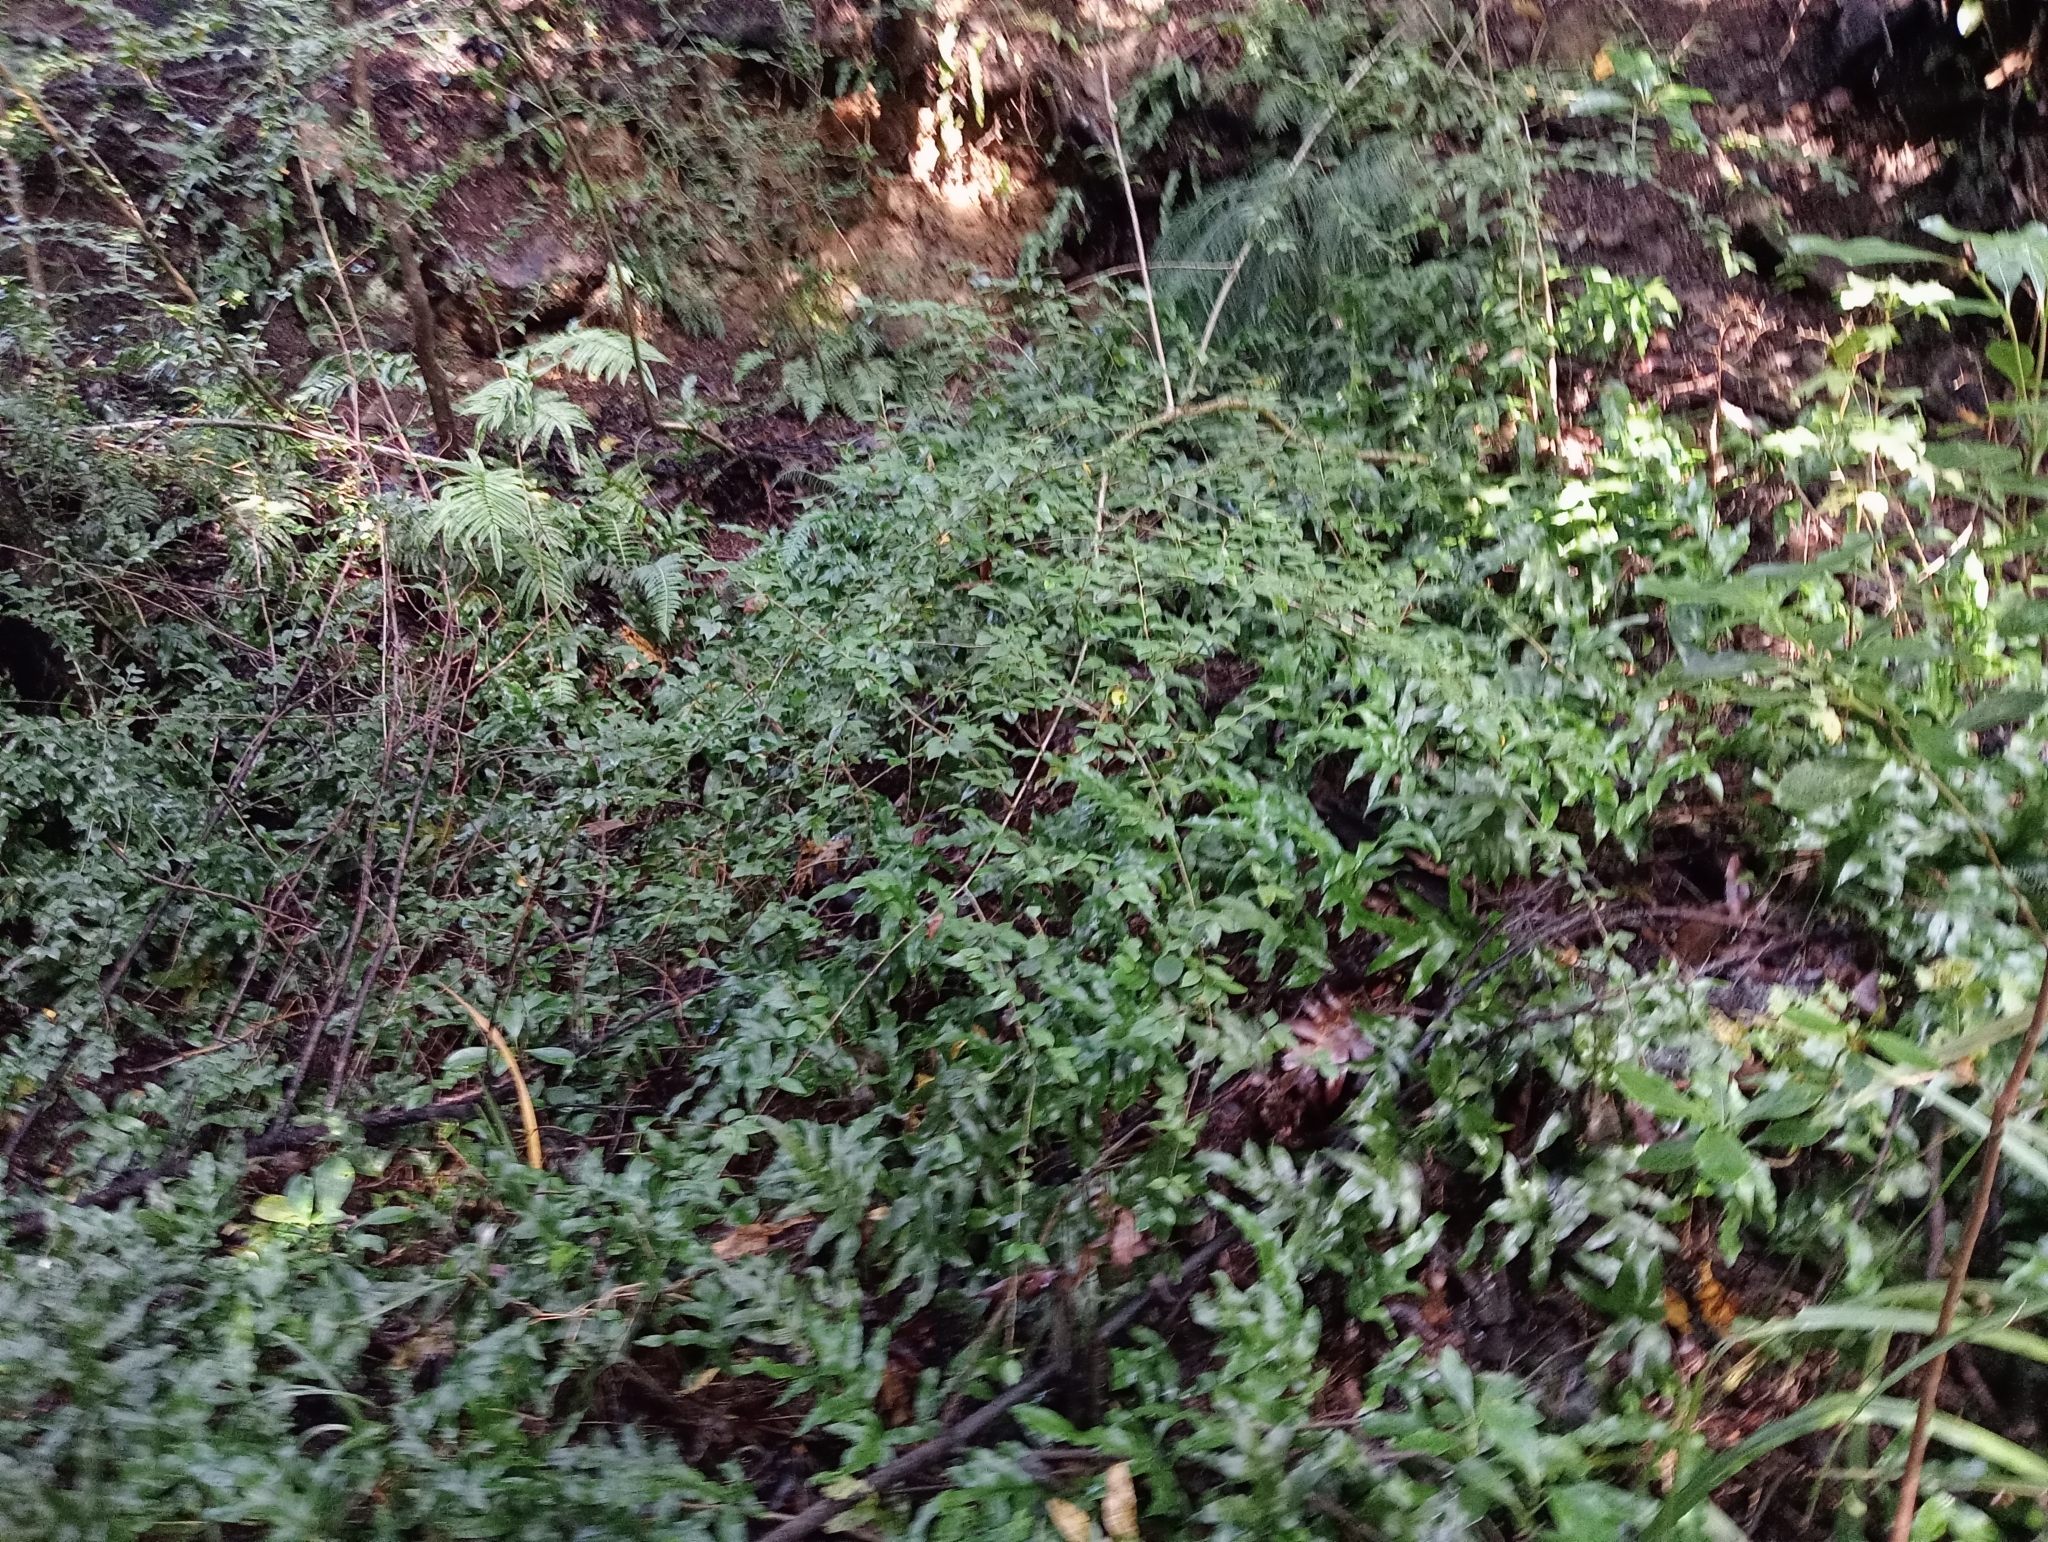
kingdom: Plantae
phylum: Tracheophyta
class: Magnoliopsida
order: Rosales
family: Rosaceae
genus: Cotoneaster
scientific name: Cotoneaster simonsii
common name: Himalayan cotoneaster
